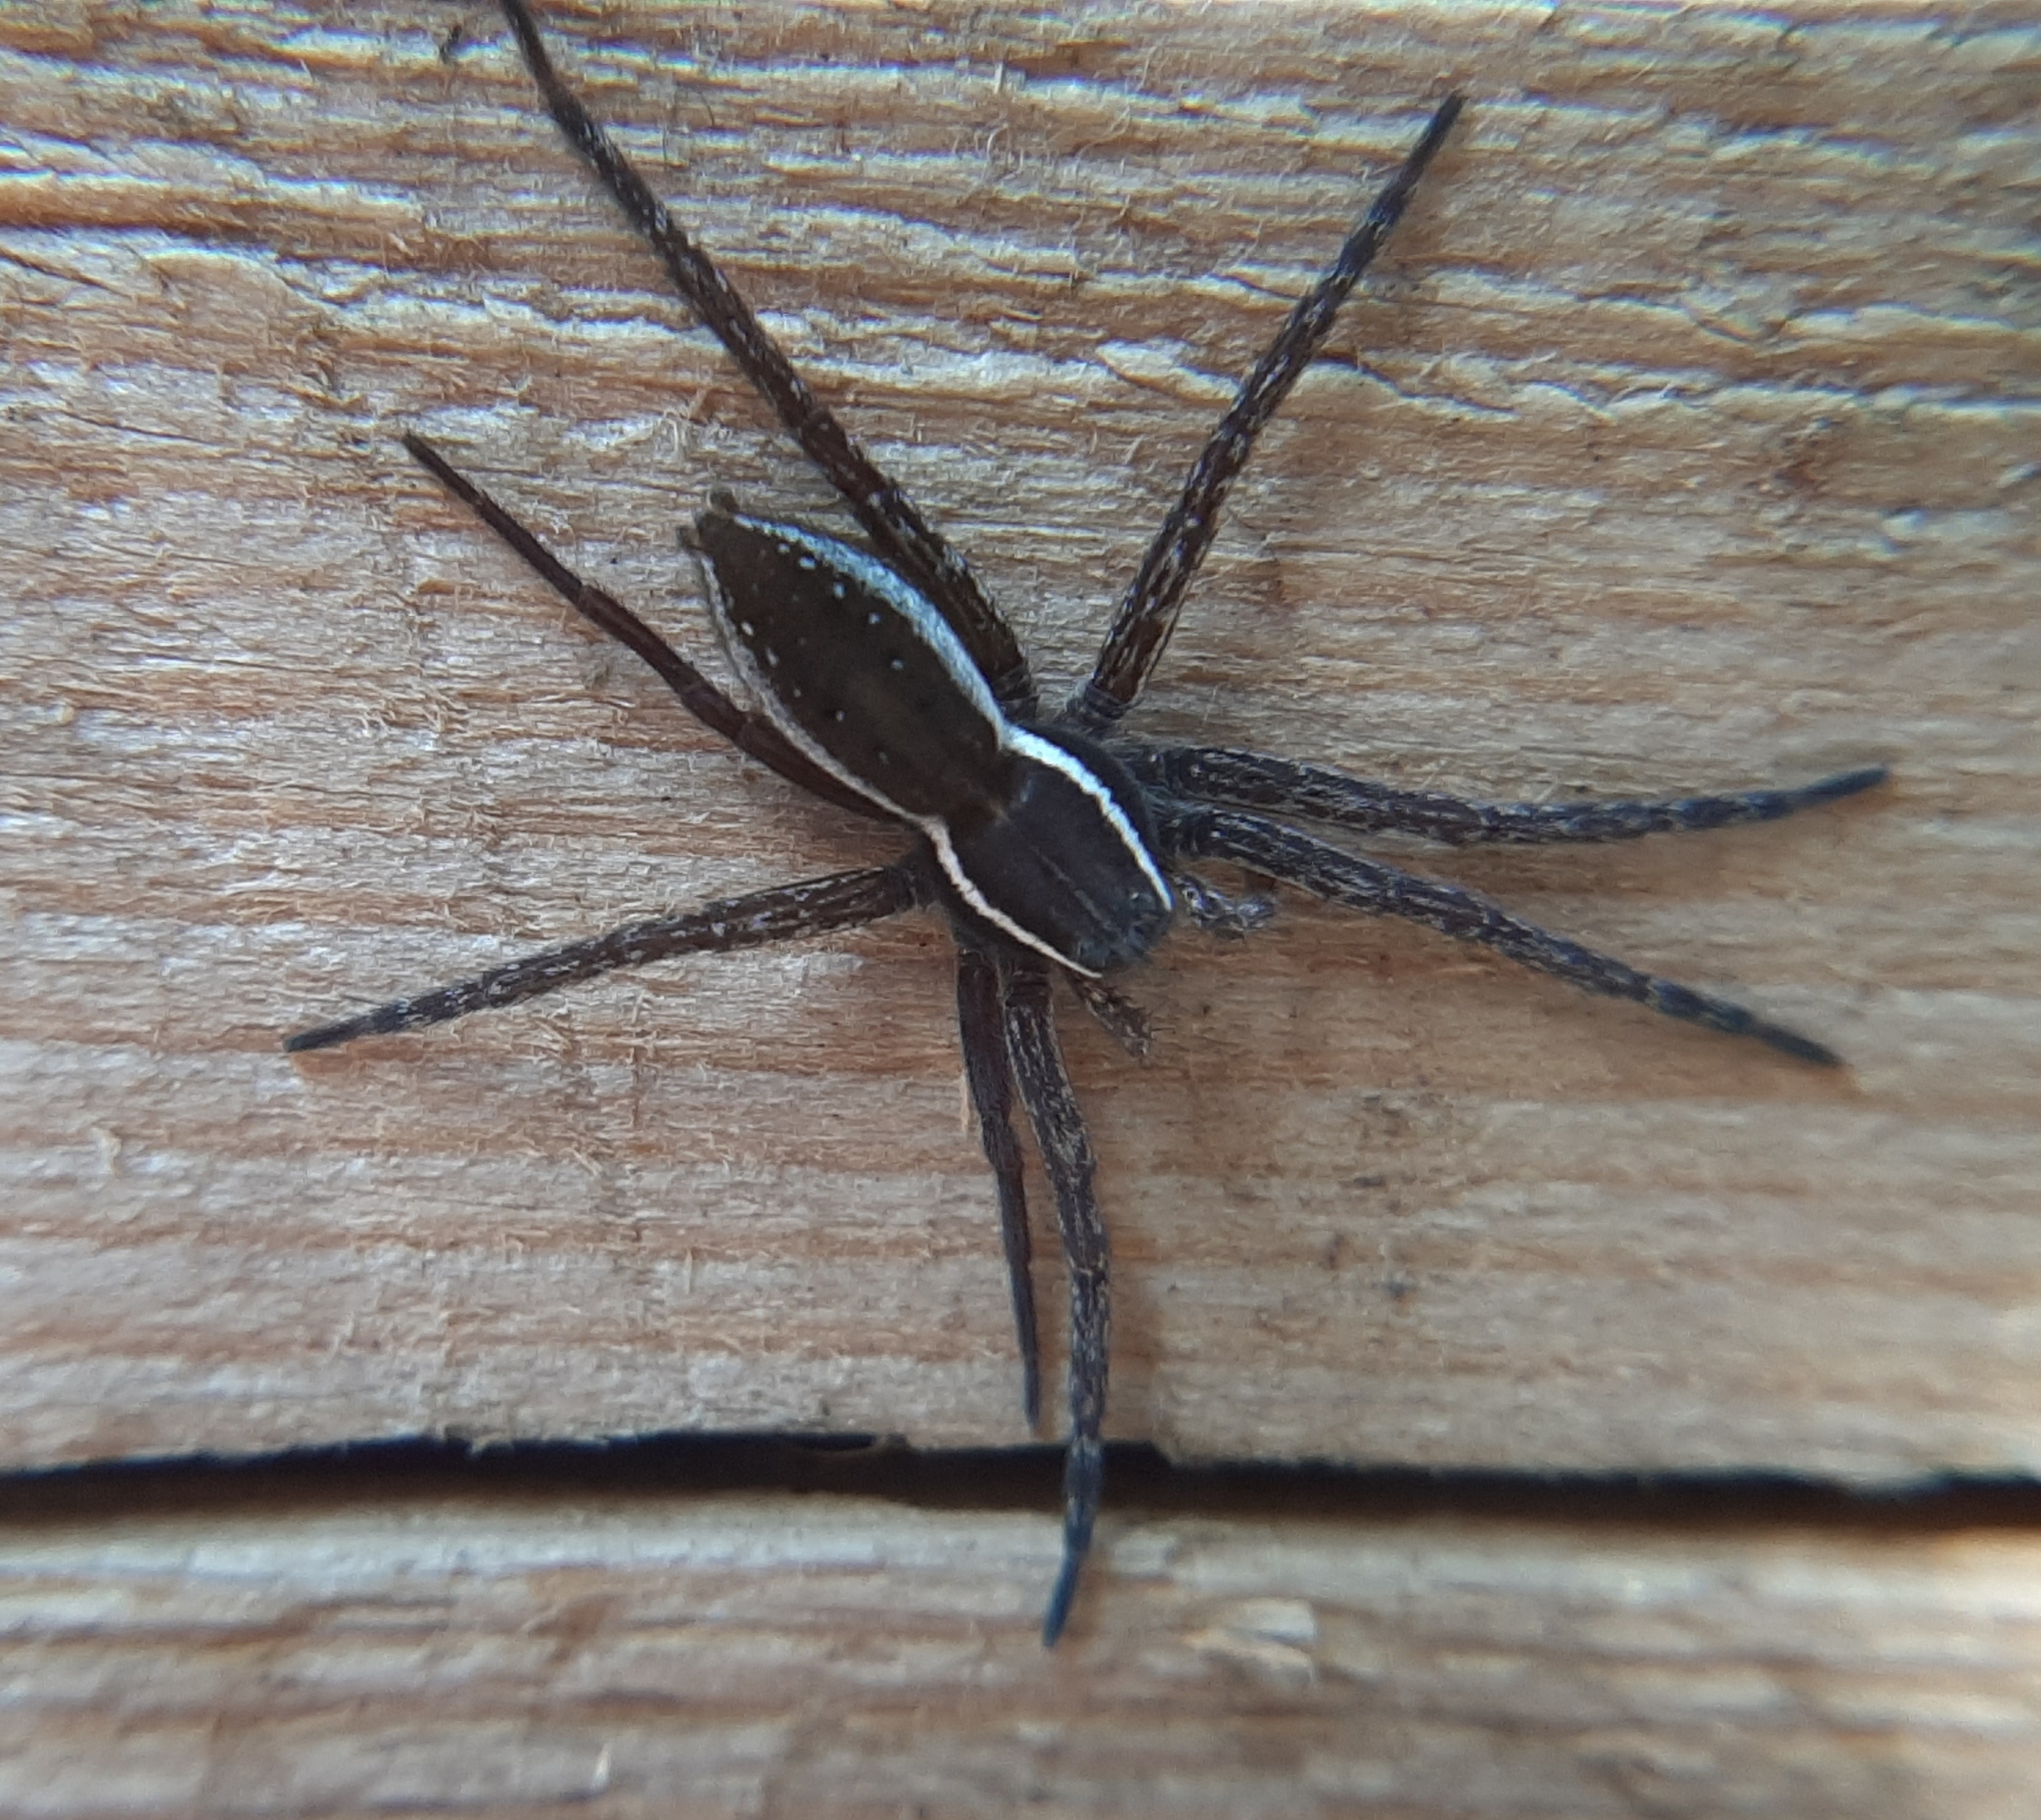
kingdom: Animalia
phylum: Arthropoda
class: Arachnida
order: Araneae
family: Pisauridae
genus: Dolomedes
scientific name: Dolomedes triton
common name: Six-spotted fishing spider
